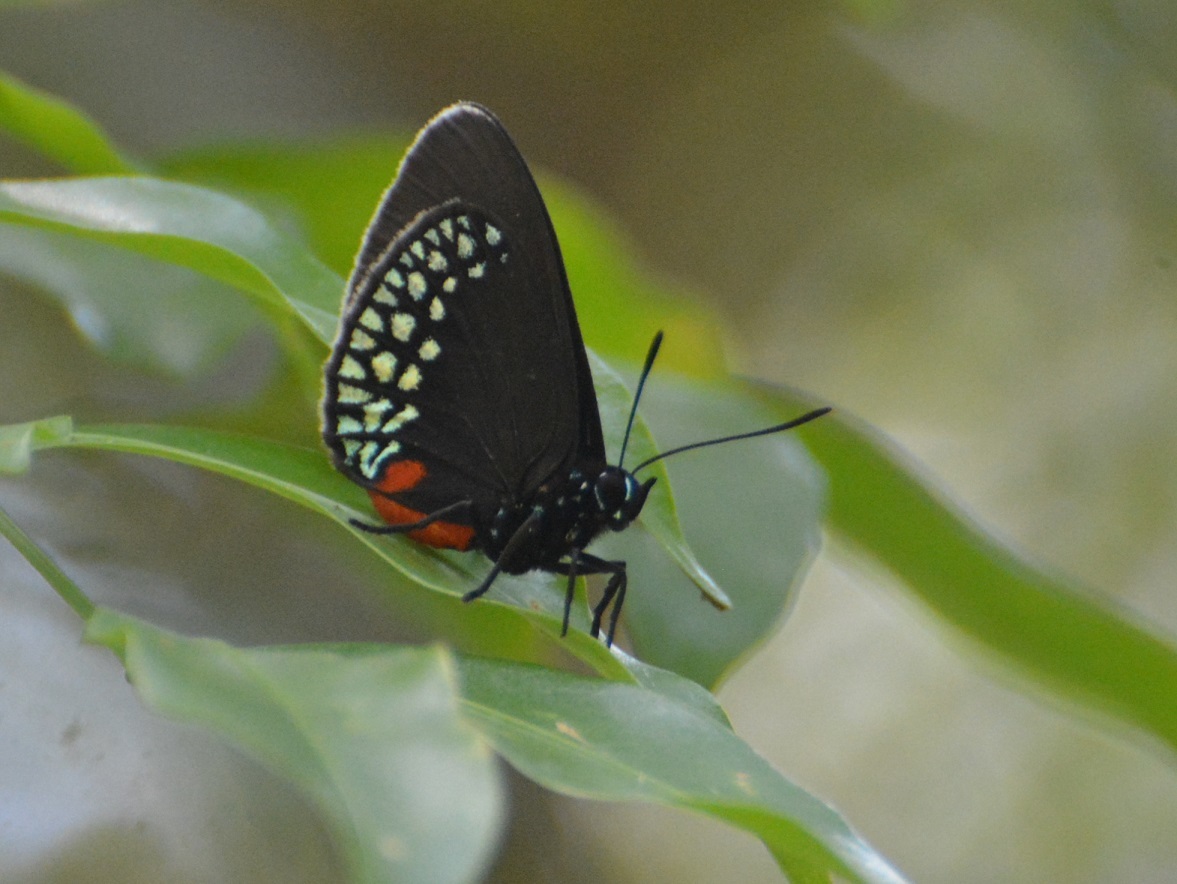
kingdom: Animalia
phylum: Arthropoda
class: Insecta
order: Lepidoptera
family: Lycaenidae
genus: Eumaeus
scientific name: Eumaeus toxea
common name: Mexican cycadian
